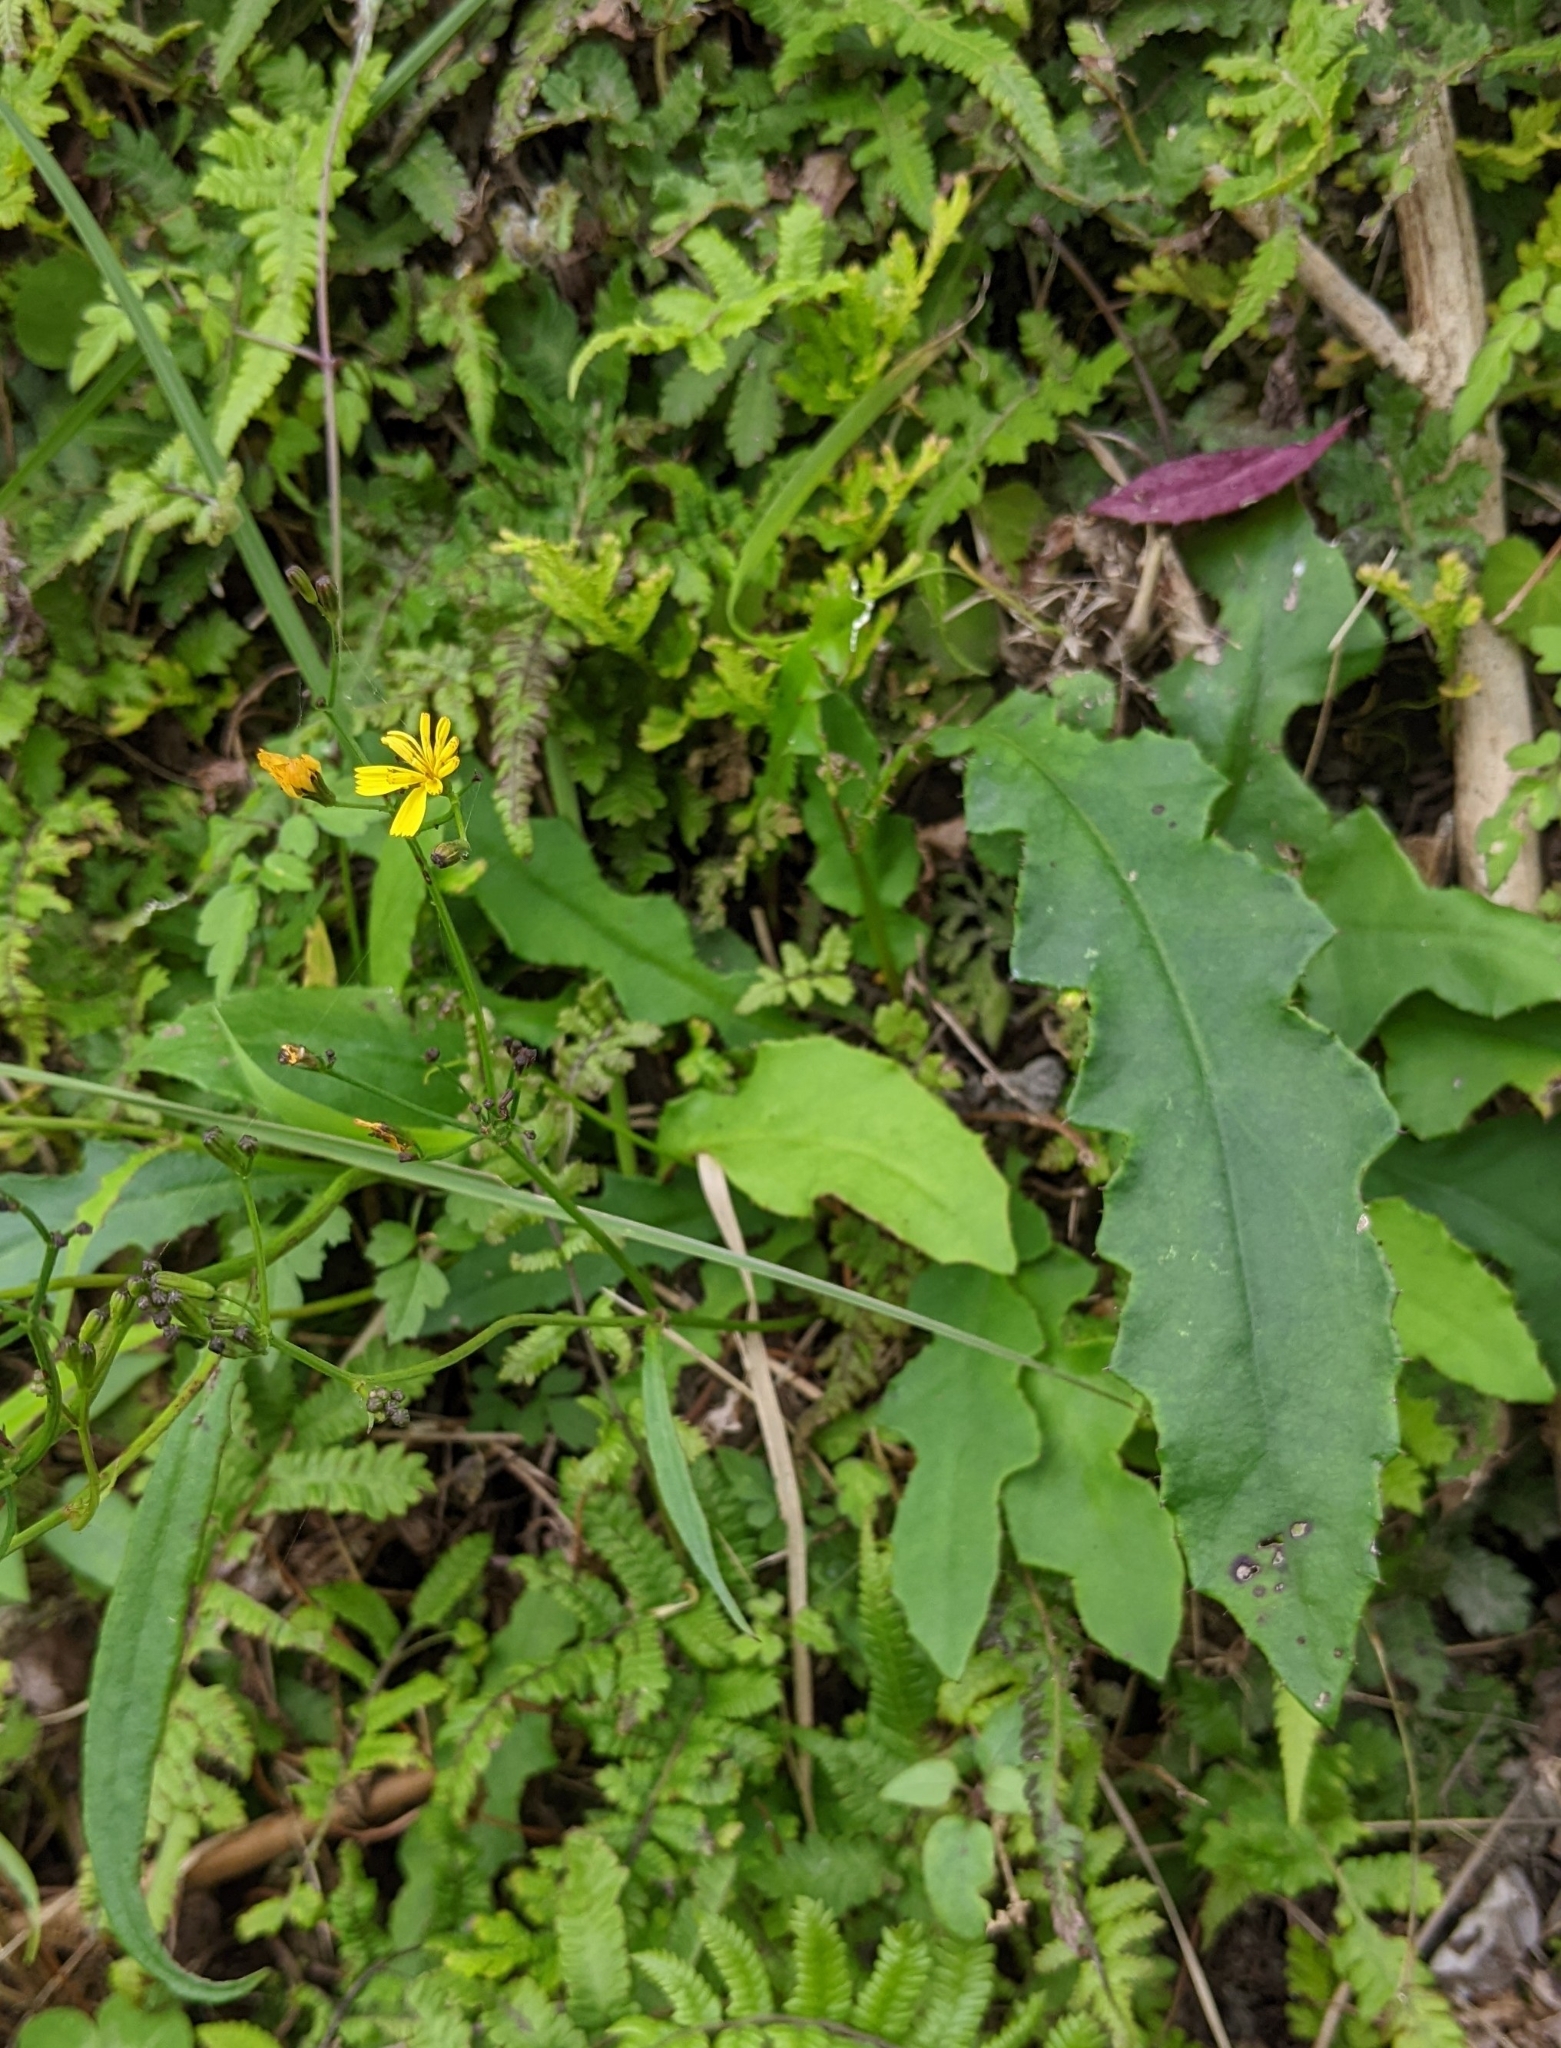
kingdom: Plantae
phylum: Tracheophyta
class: Magnoliopsida
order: Asterales
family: Asteraceae
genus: Ixeridium
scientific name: Ixeridium laevigatum
